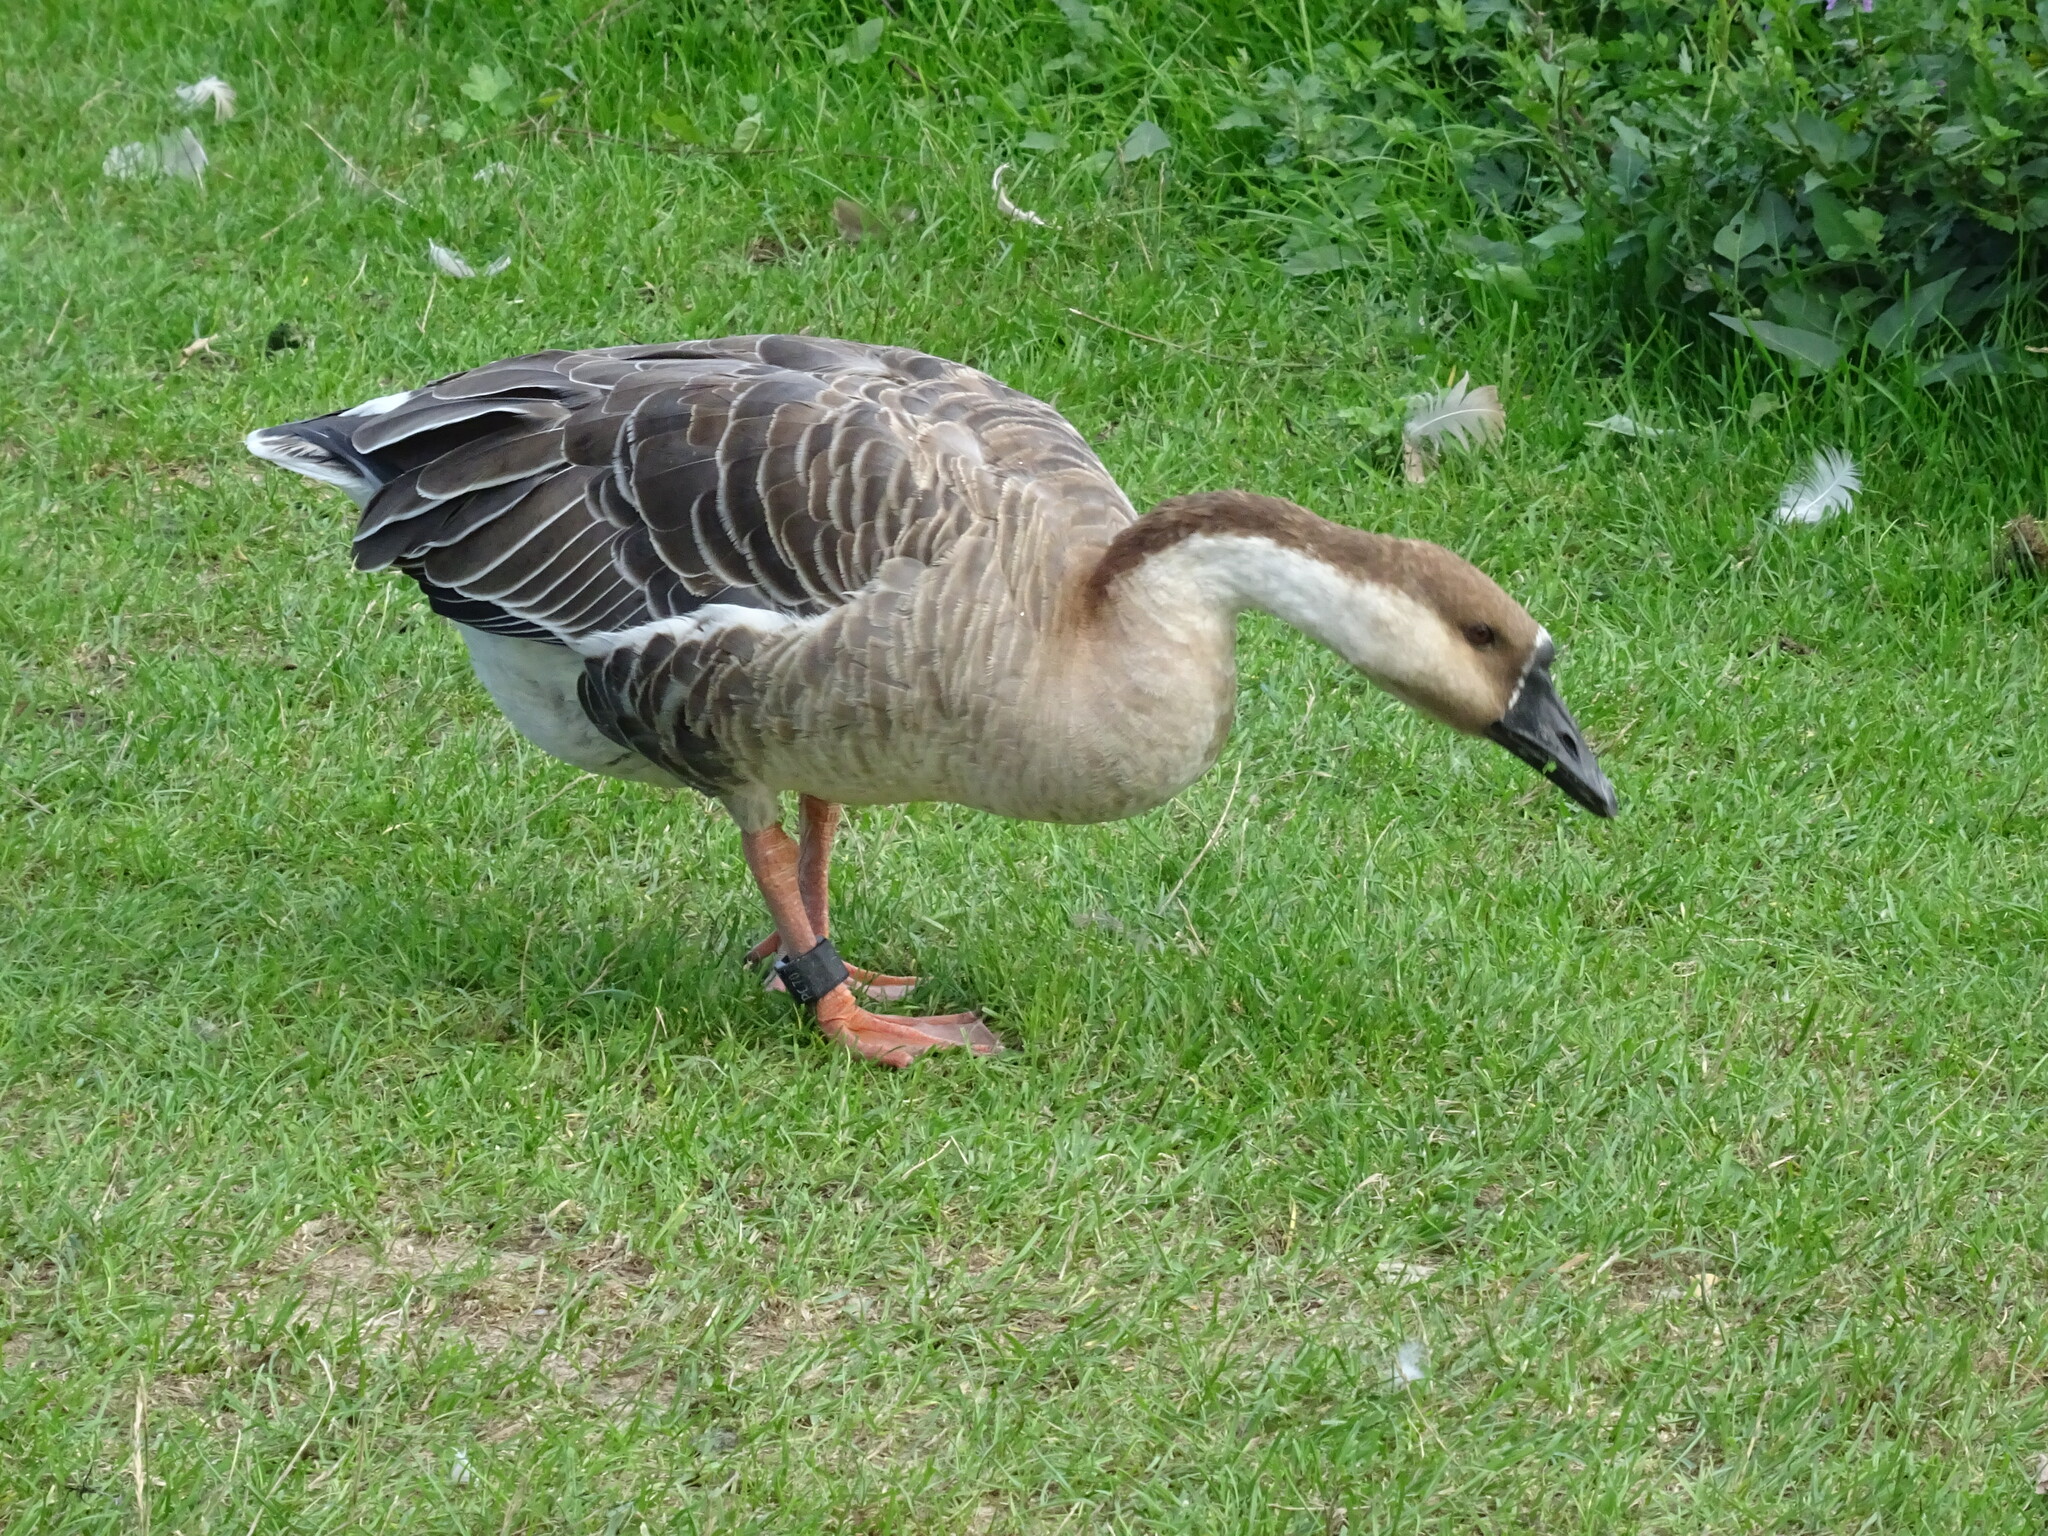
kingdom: Animalia
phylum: Chordata
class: Aves
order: Anseriformes
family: Anatidae
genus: Anser
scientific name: Anser cygnoides
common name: Swan goose
